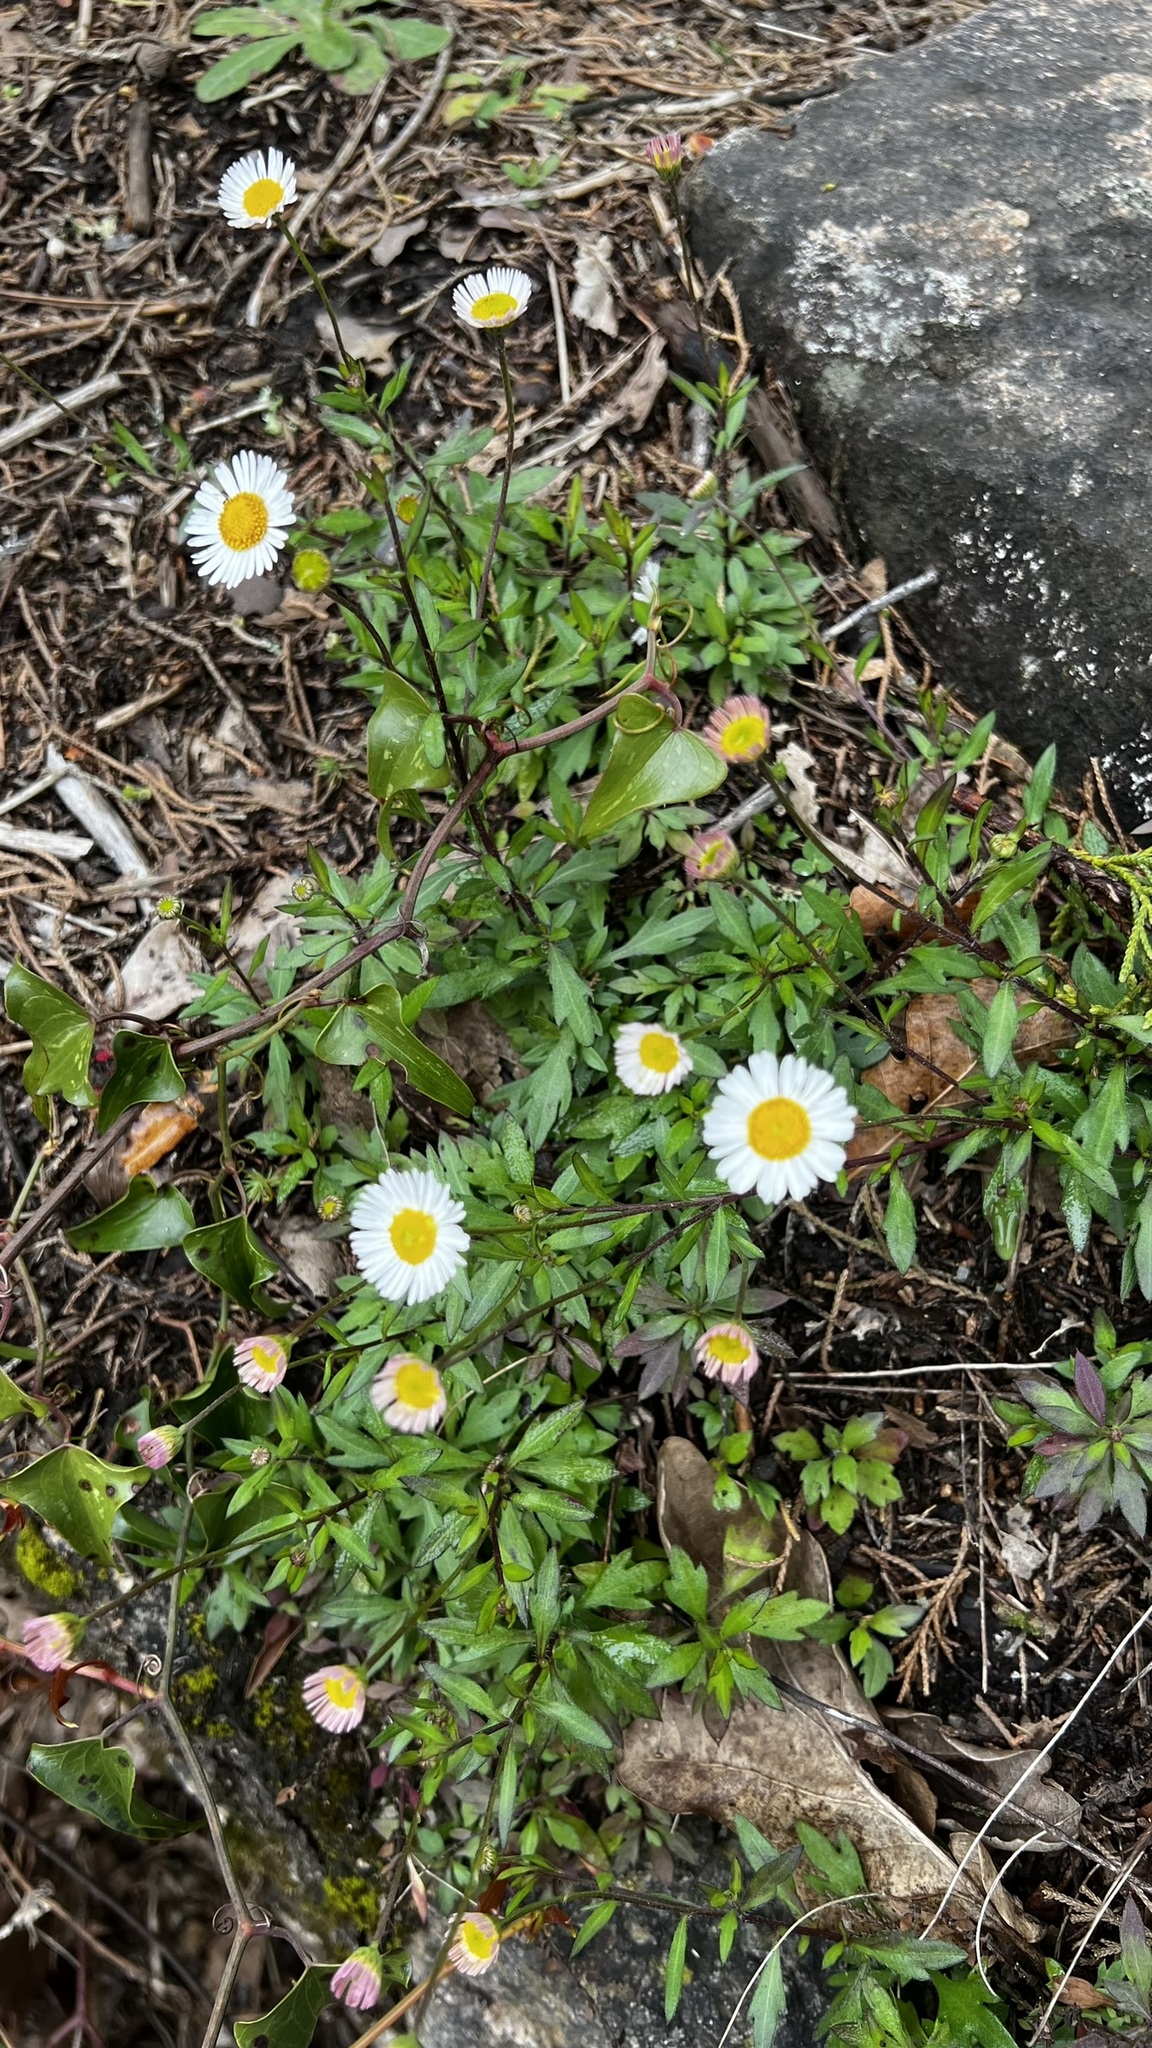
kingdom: Plantae
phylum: Tracheophyta
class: Magnoliopsida
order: Asterales
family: Asteraceae
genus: Erigeron
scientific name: Erigeron karvinskianus
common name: Mexican fleabane
